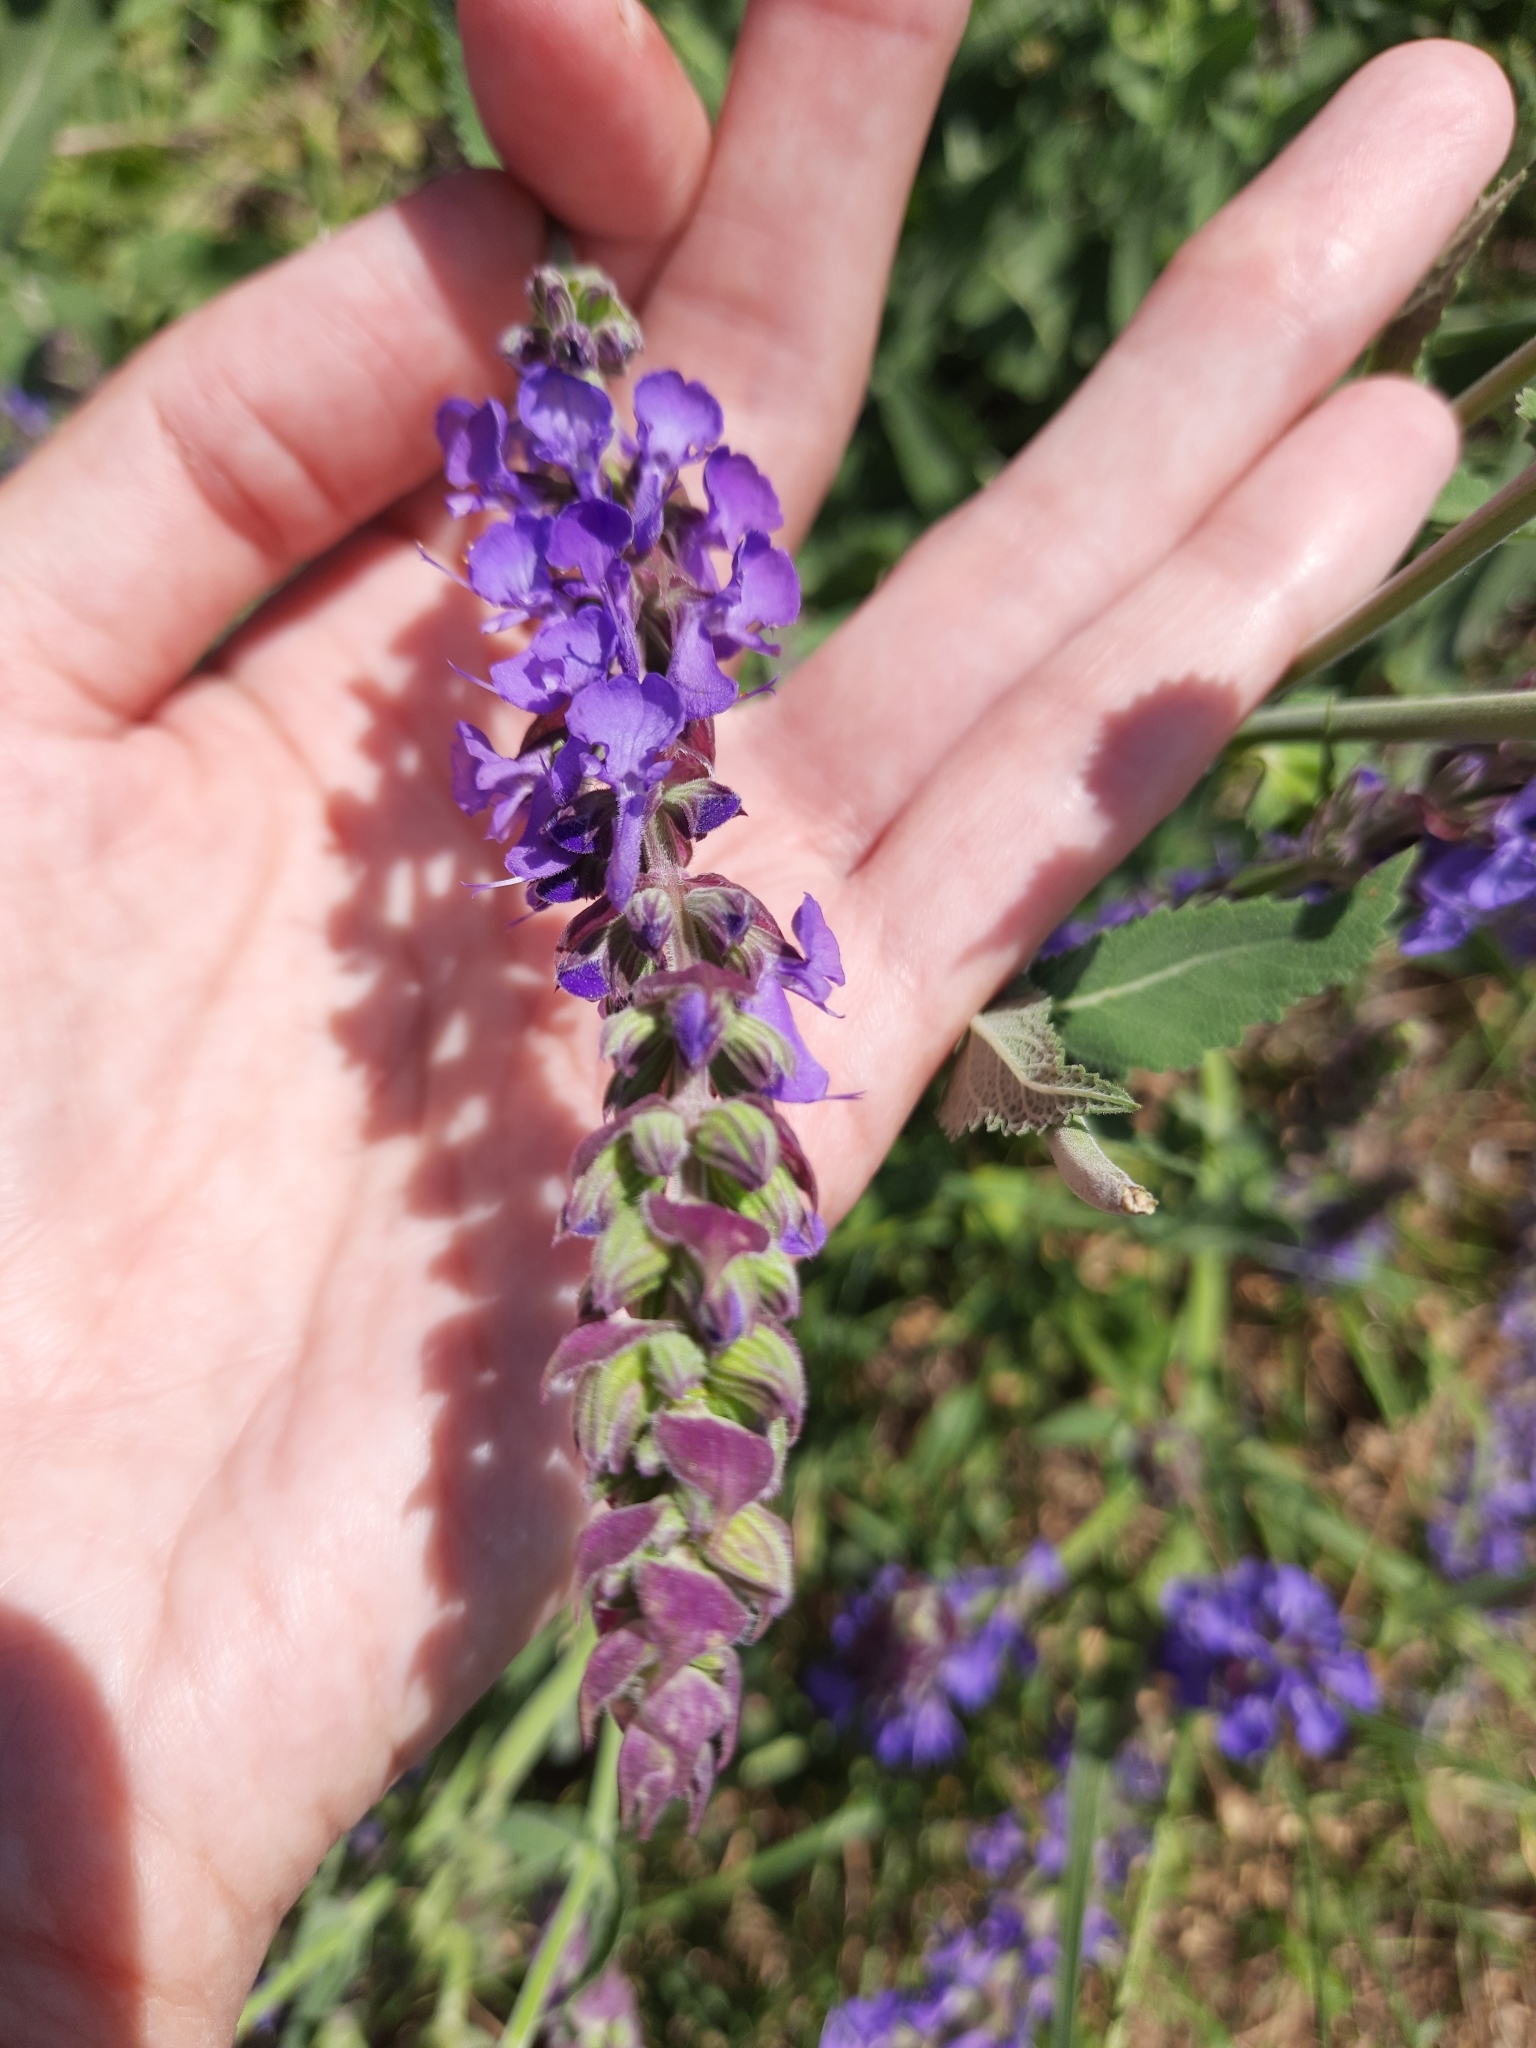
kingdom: Plantae
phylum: Tracheophyta
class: Magnoliopsida
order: Lamiales
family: Lamiaceae
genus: Salvia
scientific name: Salvia nemorosa
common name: Balkan clary
